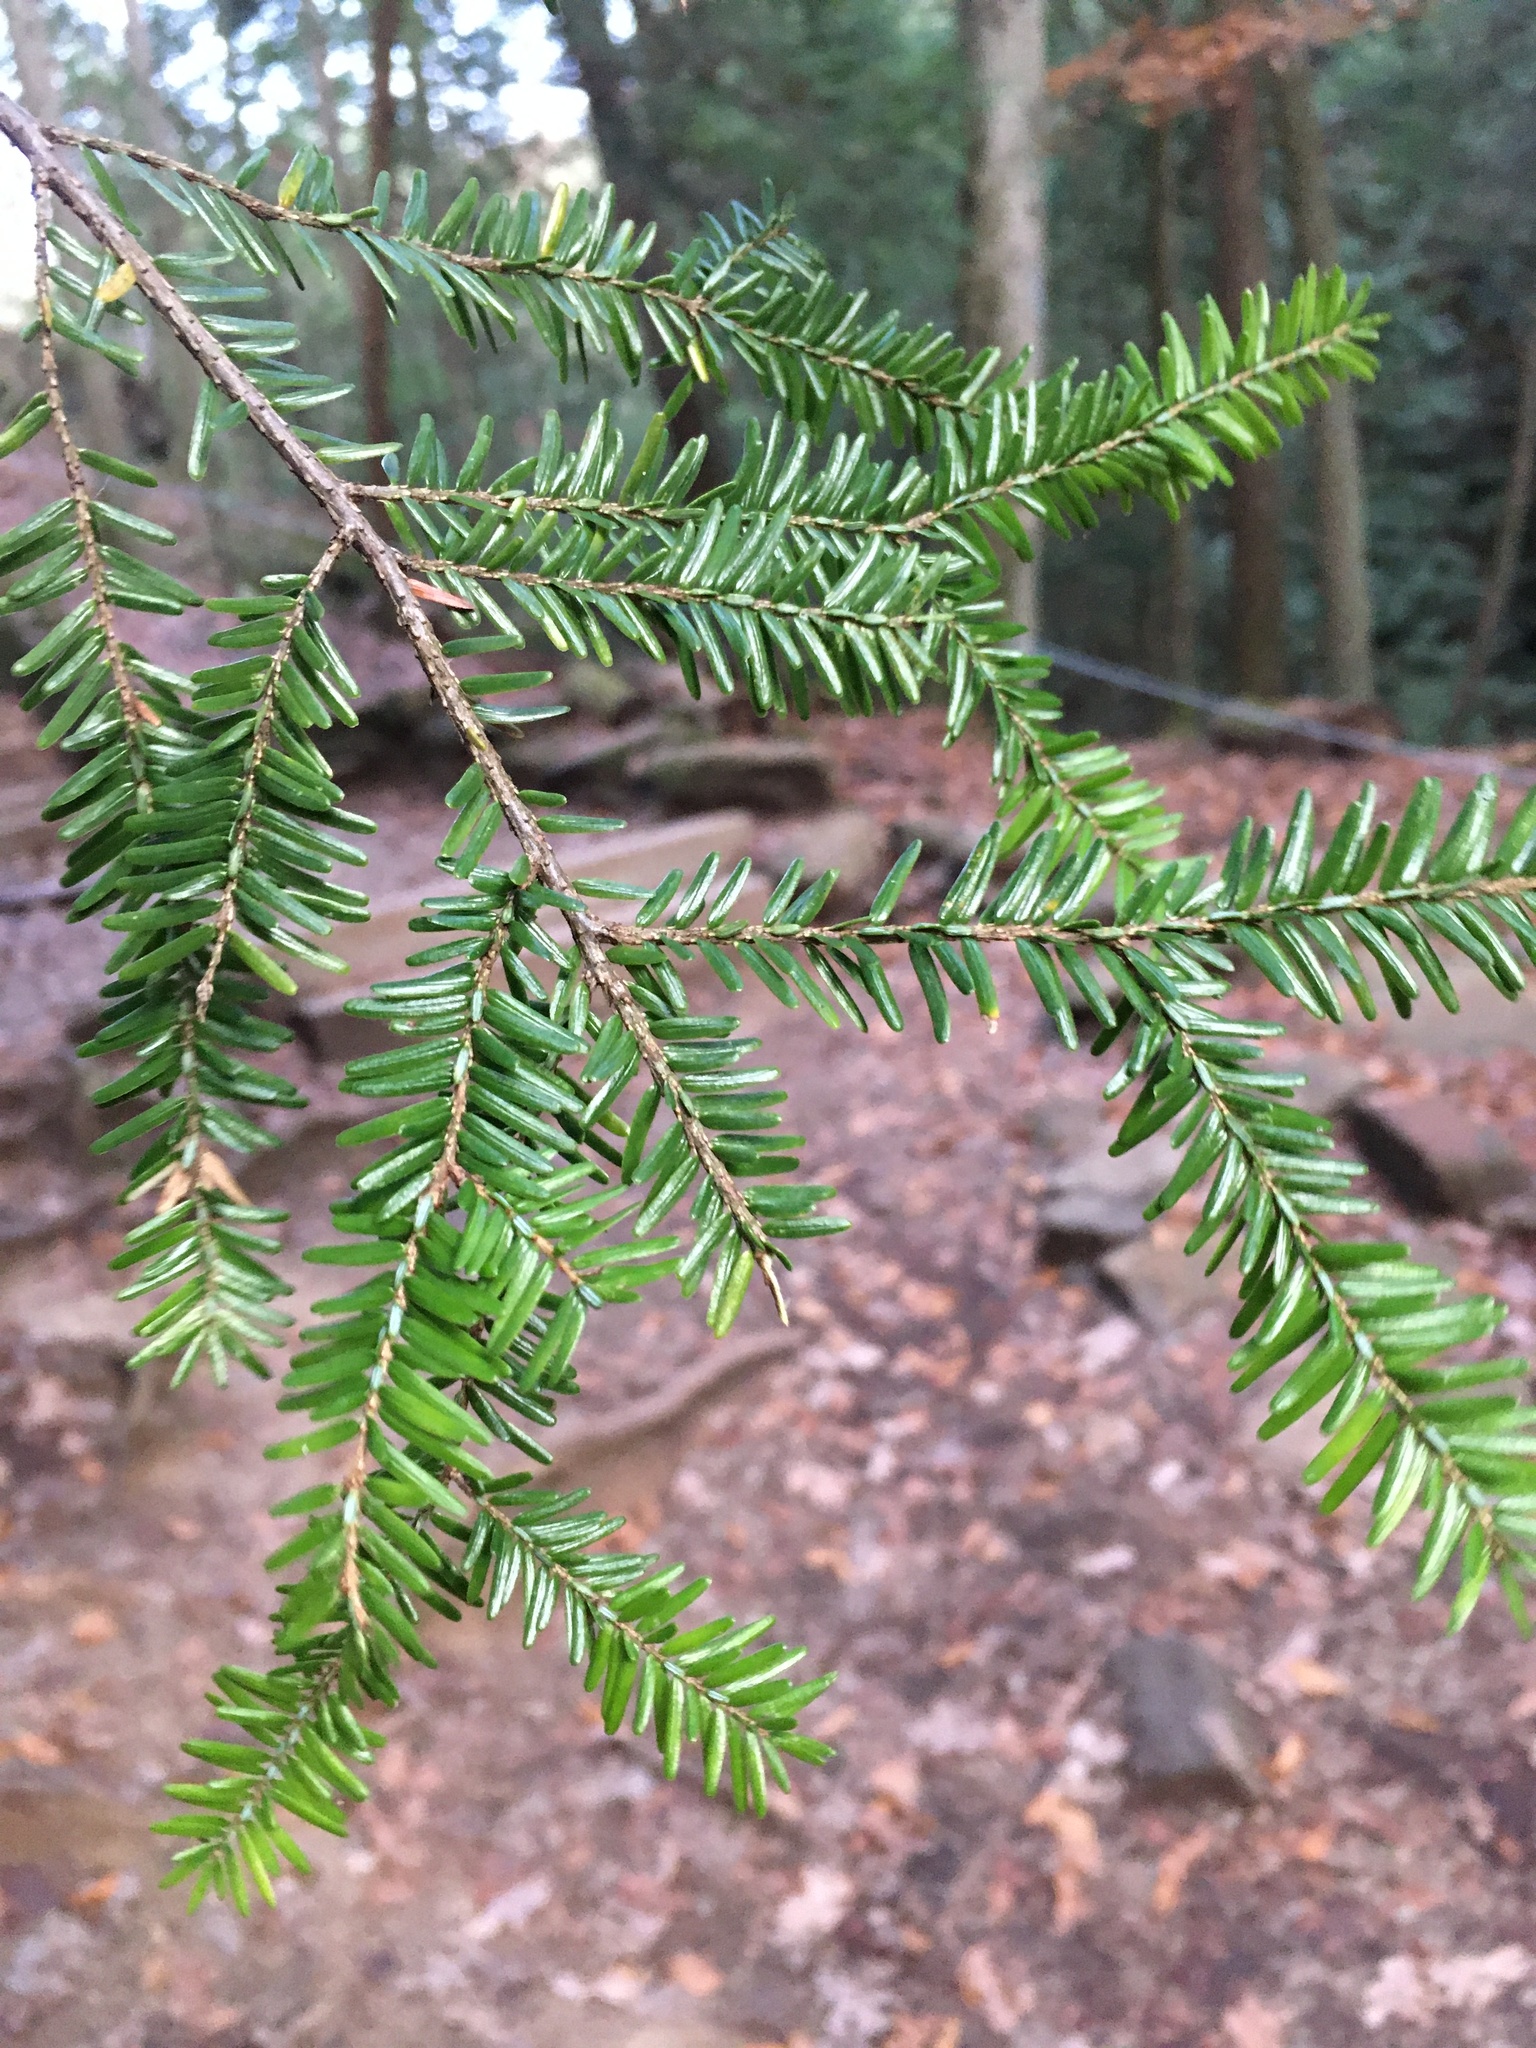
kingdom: Plantae
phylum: Tracheophyta
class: Pinopsida
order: Pinales
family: Pinaceae
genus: Tsuga
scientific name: Tsuga canadensis
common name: Eastern hemlock
